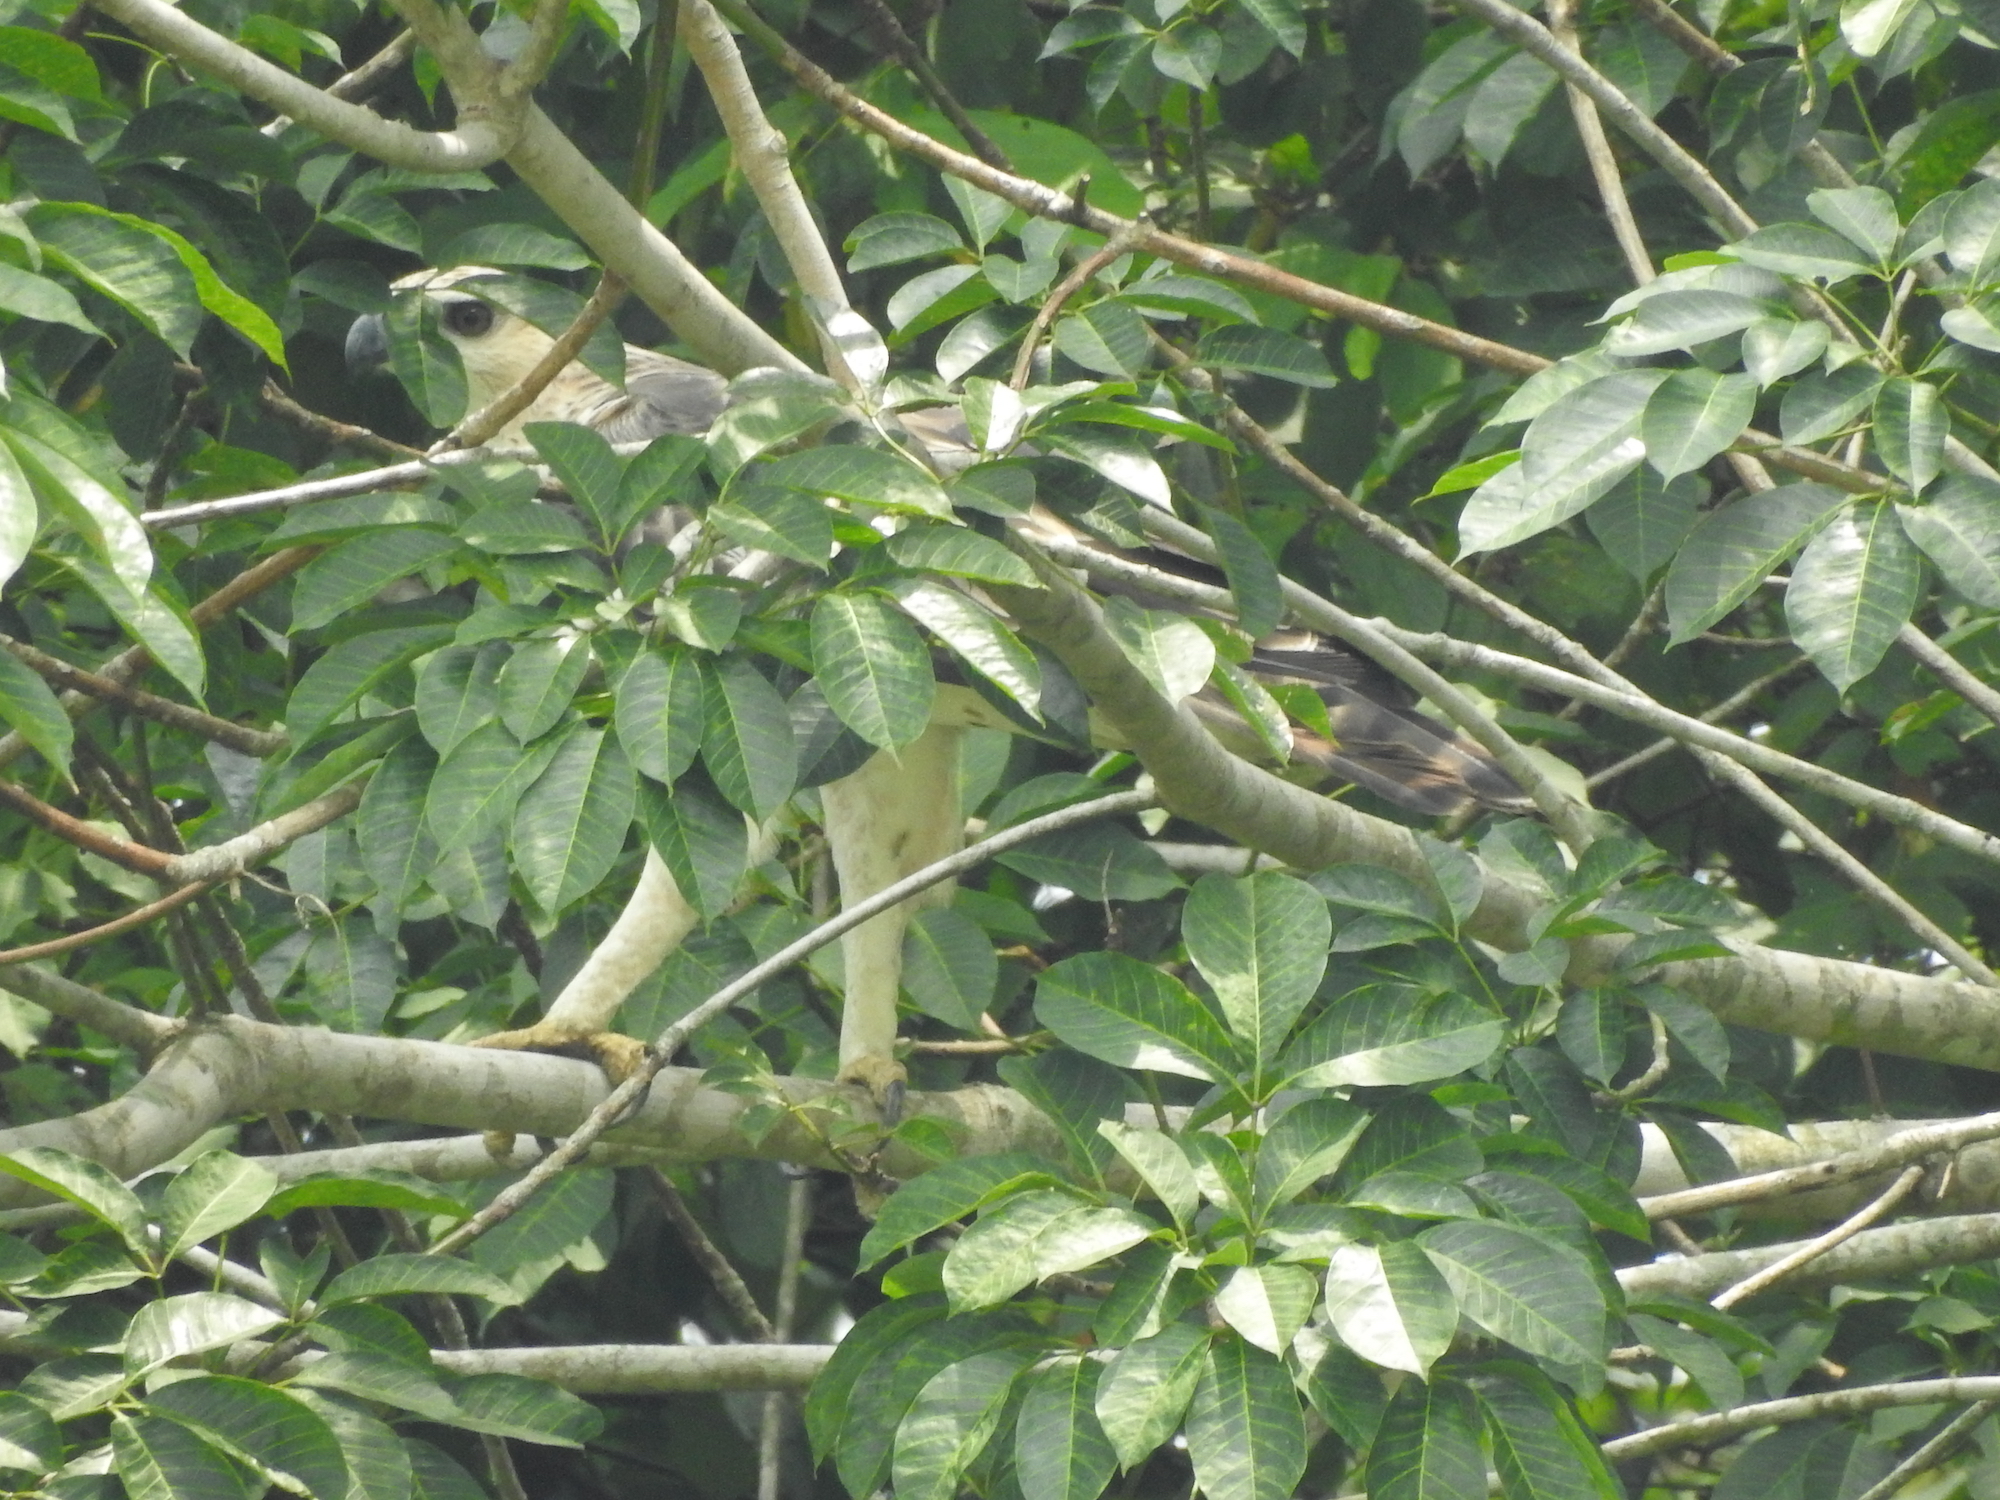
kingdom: Animalia
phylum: Chordata
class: Aves
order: Accipitriformes
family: Accipitridae
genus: Nisaetus
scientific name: Nisaetus cirrhatus
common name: Changeable hawk-eagle
